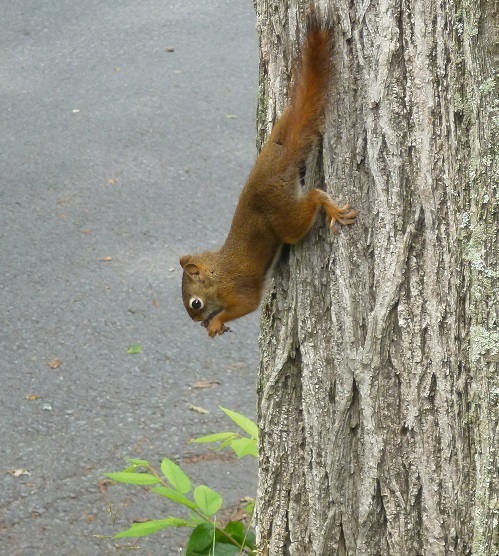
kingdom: Animalia
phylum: Chordata
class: Mammalia
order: Rodentia
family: Sciuridae
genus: Tamiasciurus
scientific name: Tamiasciurus hudsonicus
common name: Red squirrel
